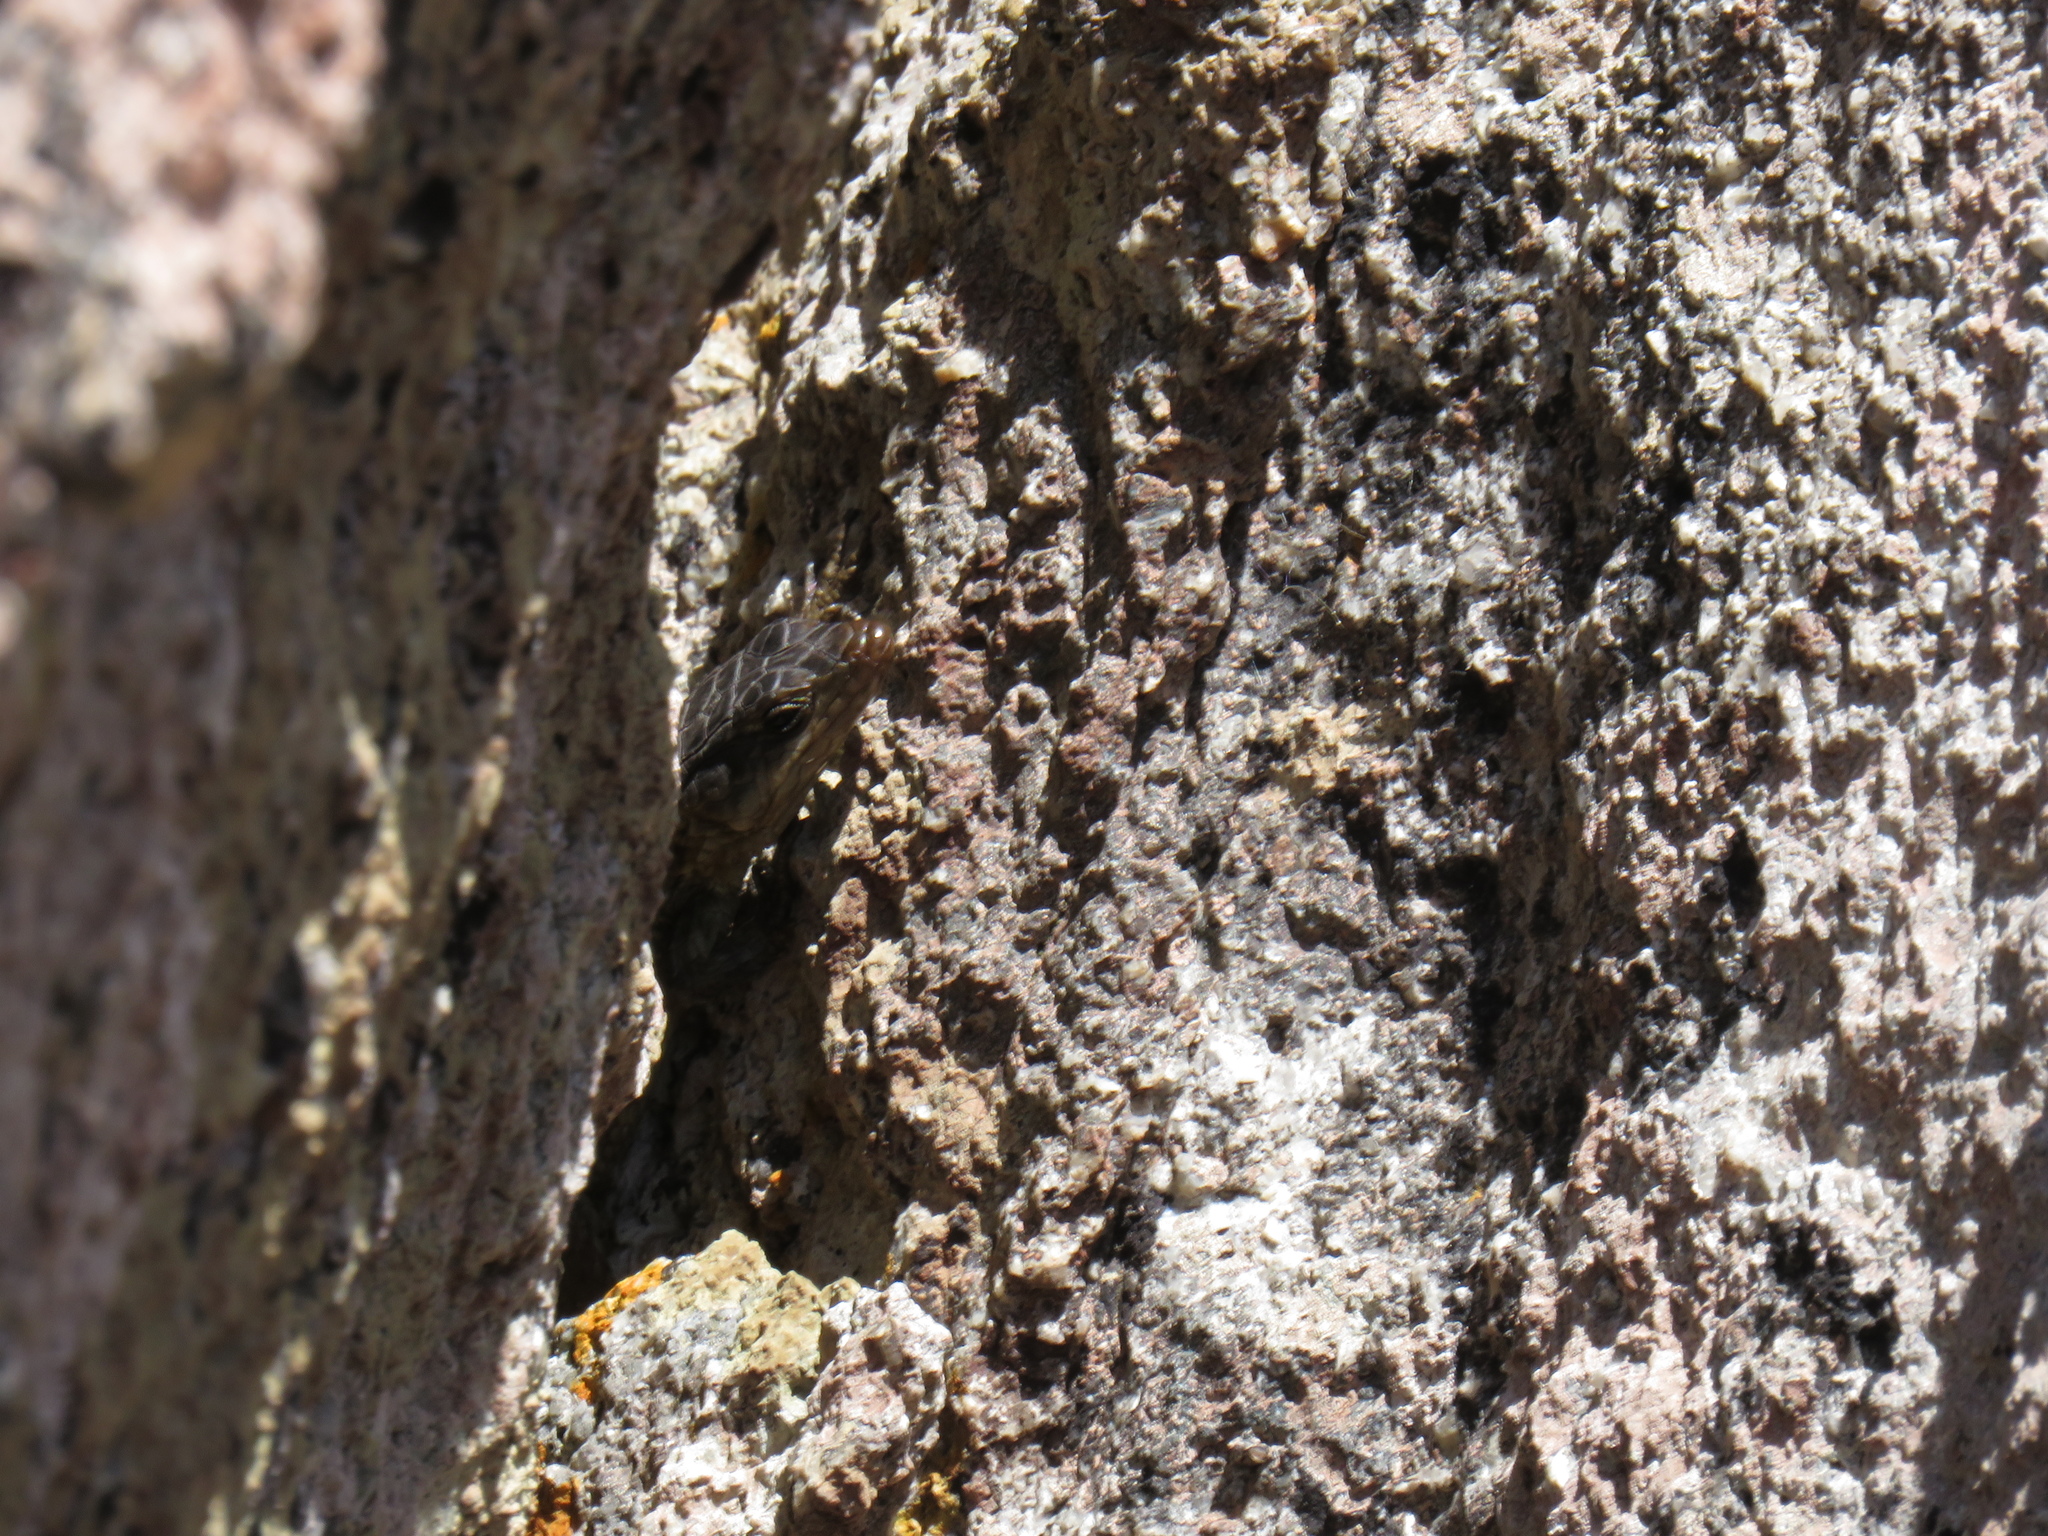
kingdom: Animalia
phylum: Chordata
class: Squamata
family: Cordylidae
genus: Cordylus
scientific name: Cordylus niger
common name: Black girdled lizard
